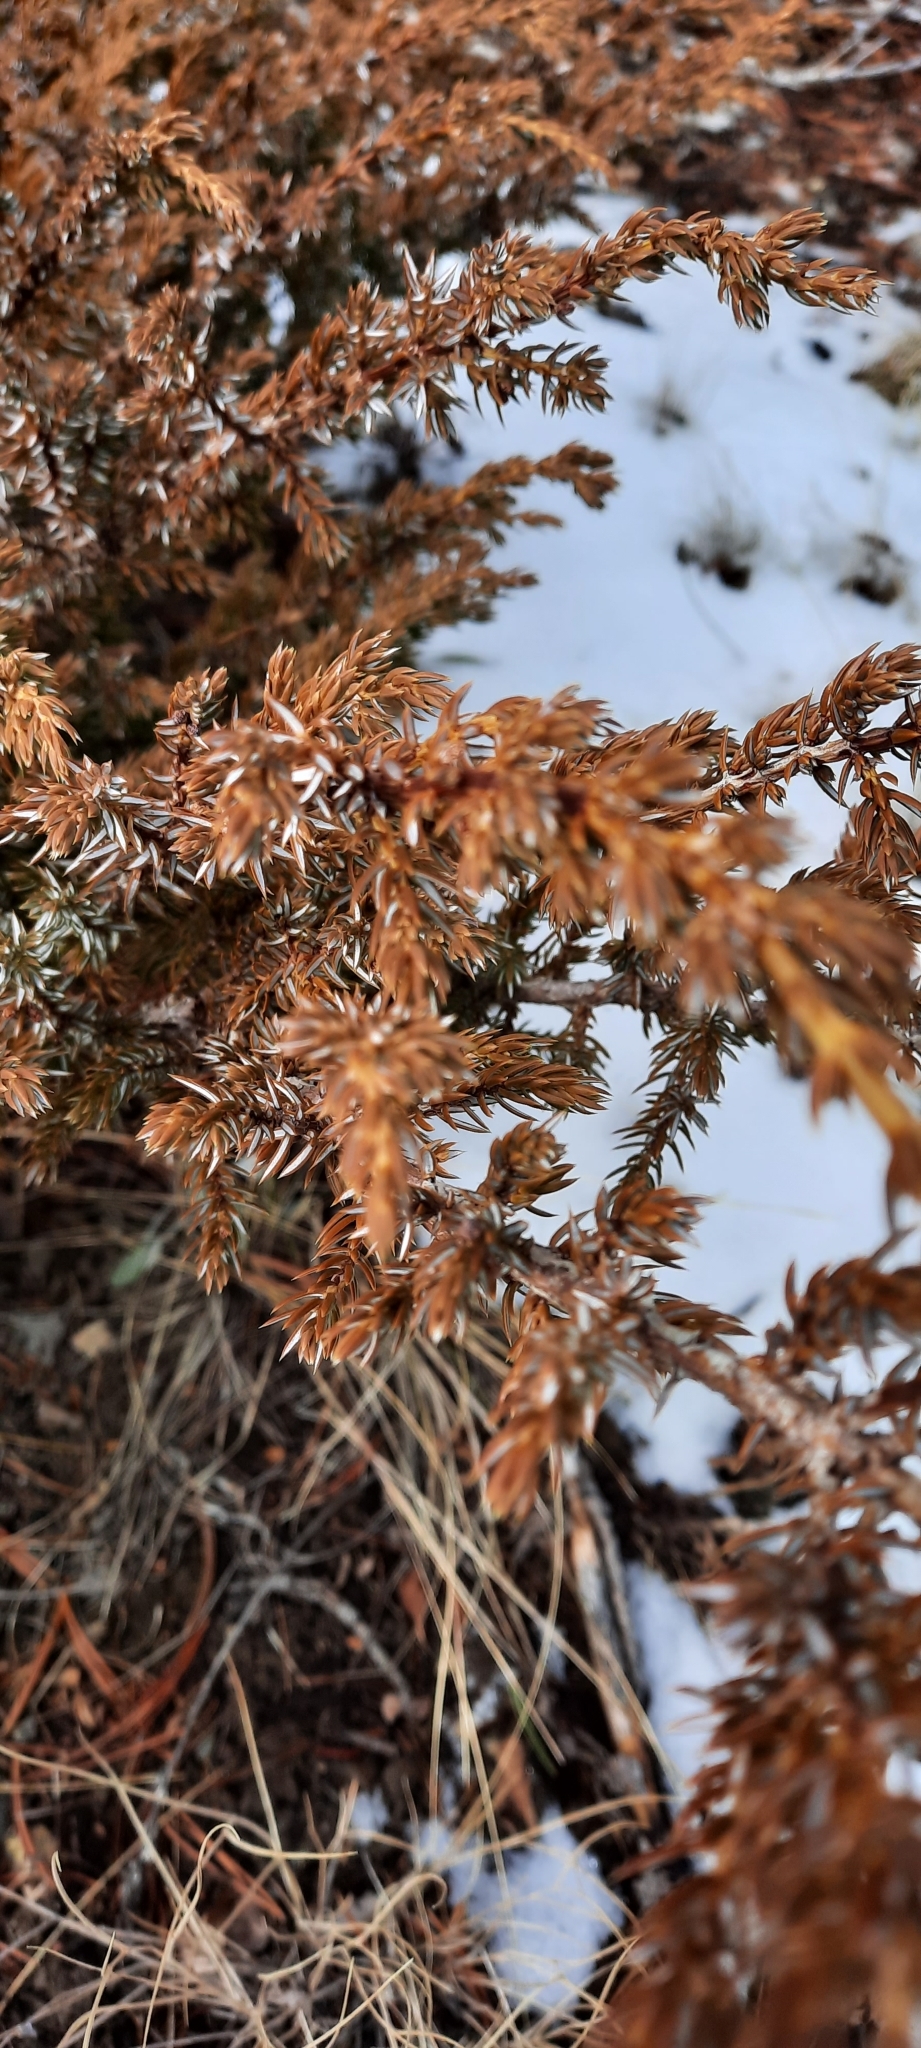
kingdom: Plantae
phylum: Tracheophyta
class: Pinopsida
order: Pinales
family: Cupressaceae
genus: Juniperus
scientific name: Juniperus communis
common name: Common juniper
